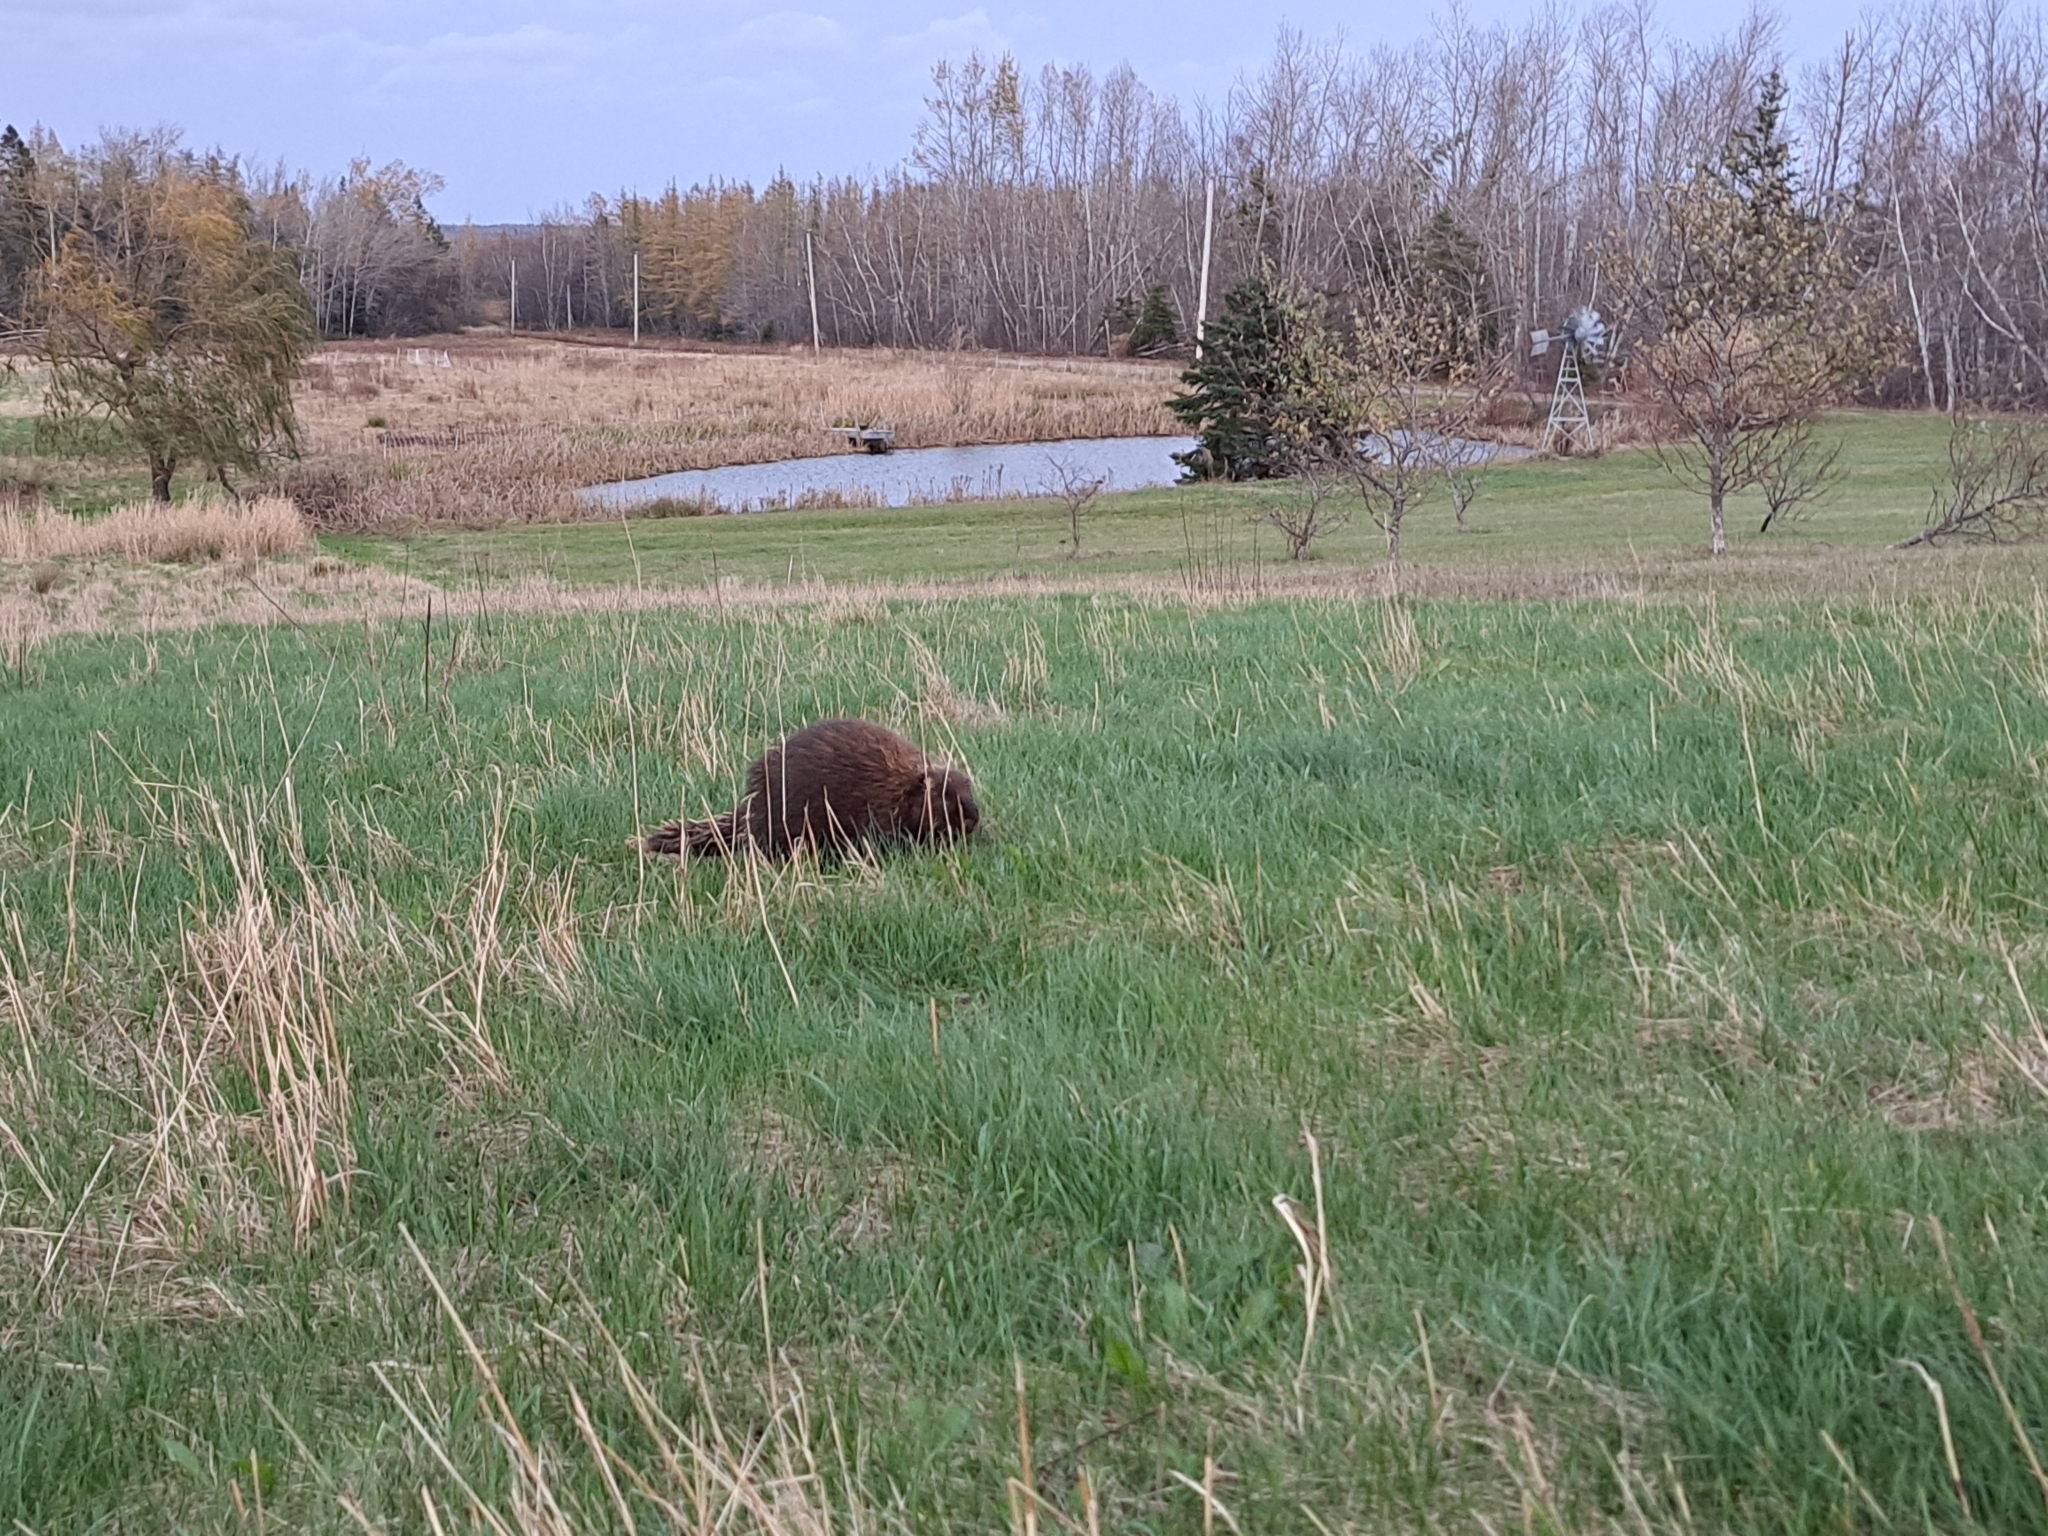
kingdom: Animalia
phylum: Chordata
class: Mammalia
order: Rodentia
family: Erethizontidae
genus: Erethizon
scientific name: Erethizon dorsatus
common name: North american porcupine
